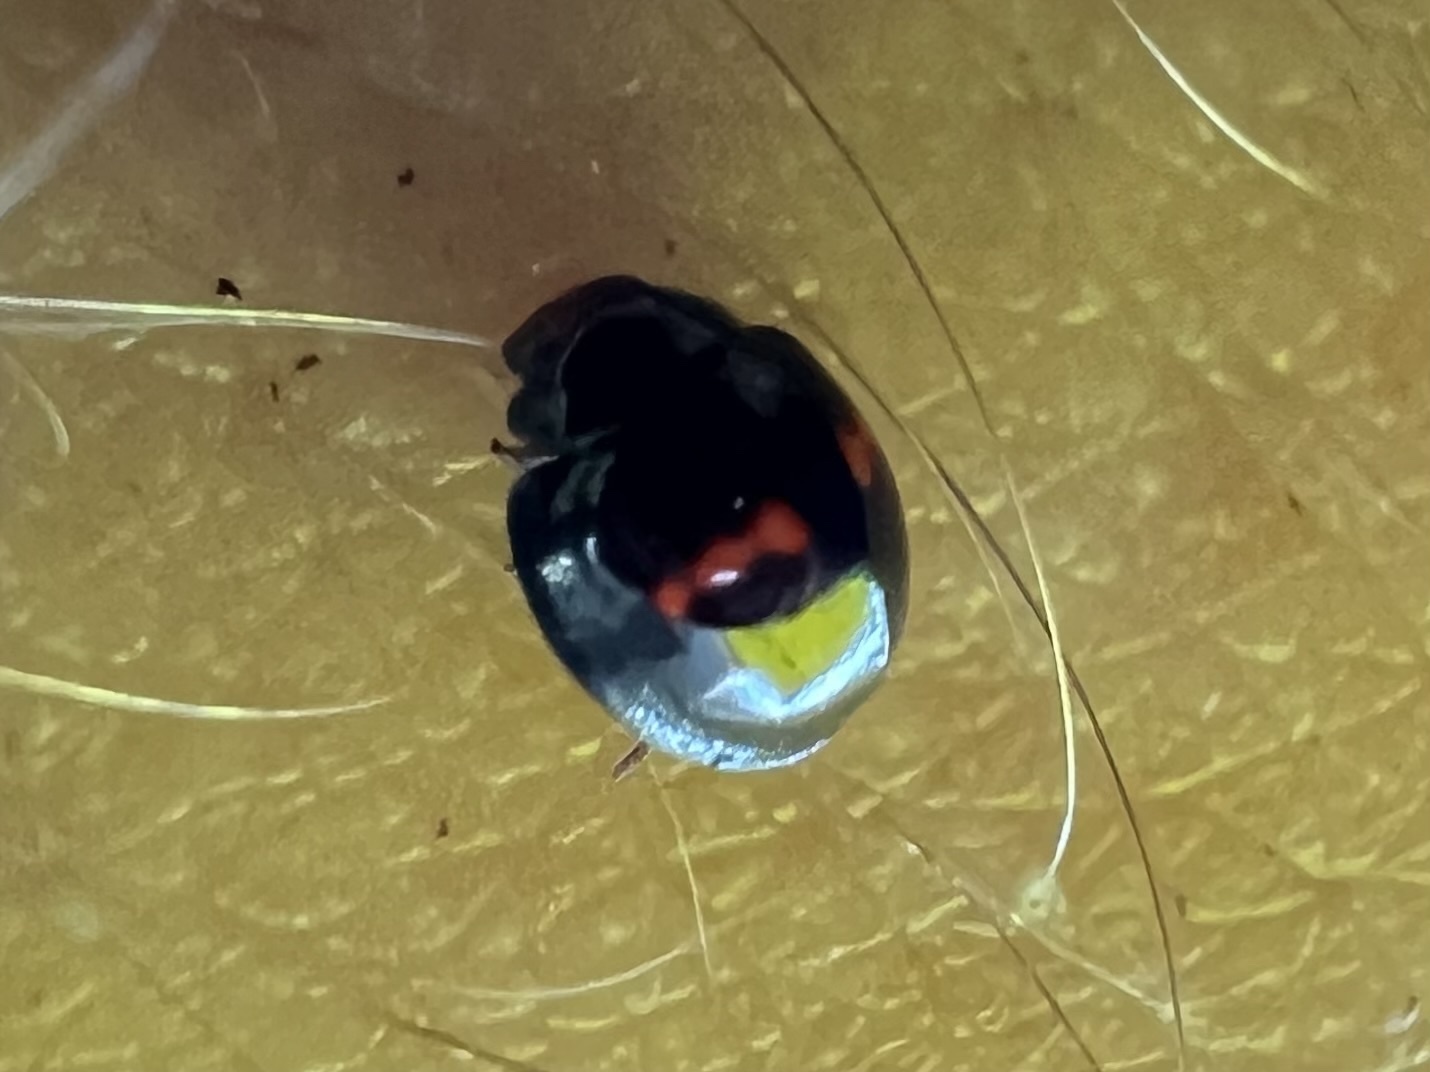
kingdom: Animalia
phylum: Arthropoda
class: Insecta
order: Coleoptera
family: Coccinellidae
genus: Chilocorus
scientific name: Chilocorus bipustulatus
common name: Heather ladybird
